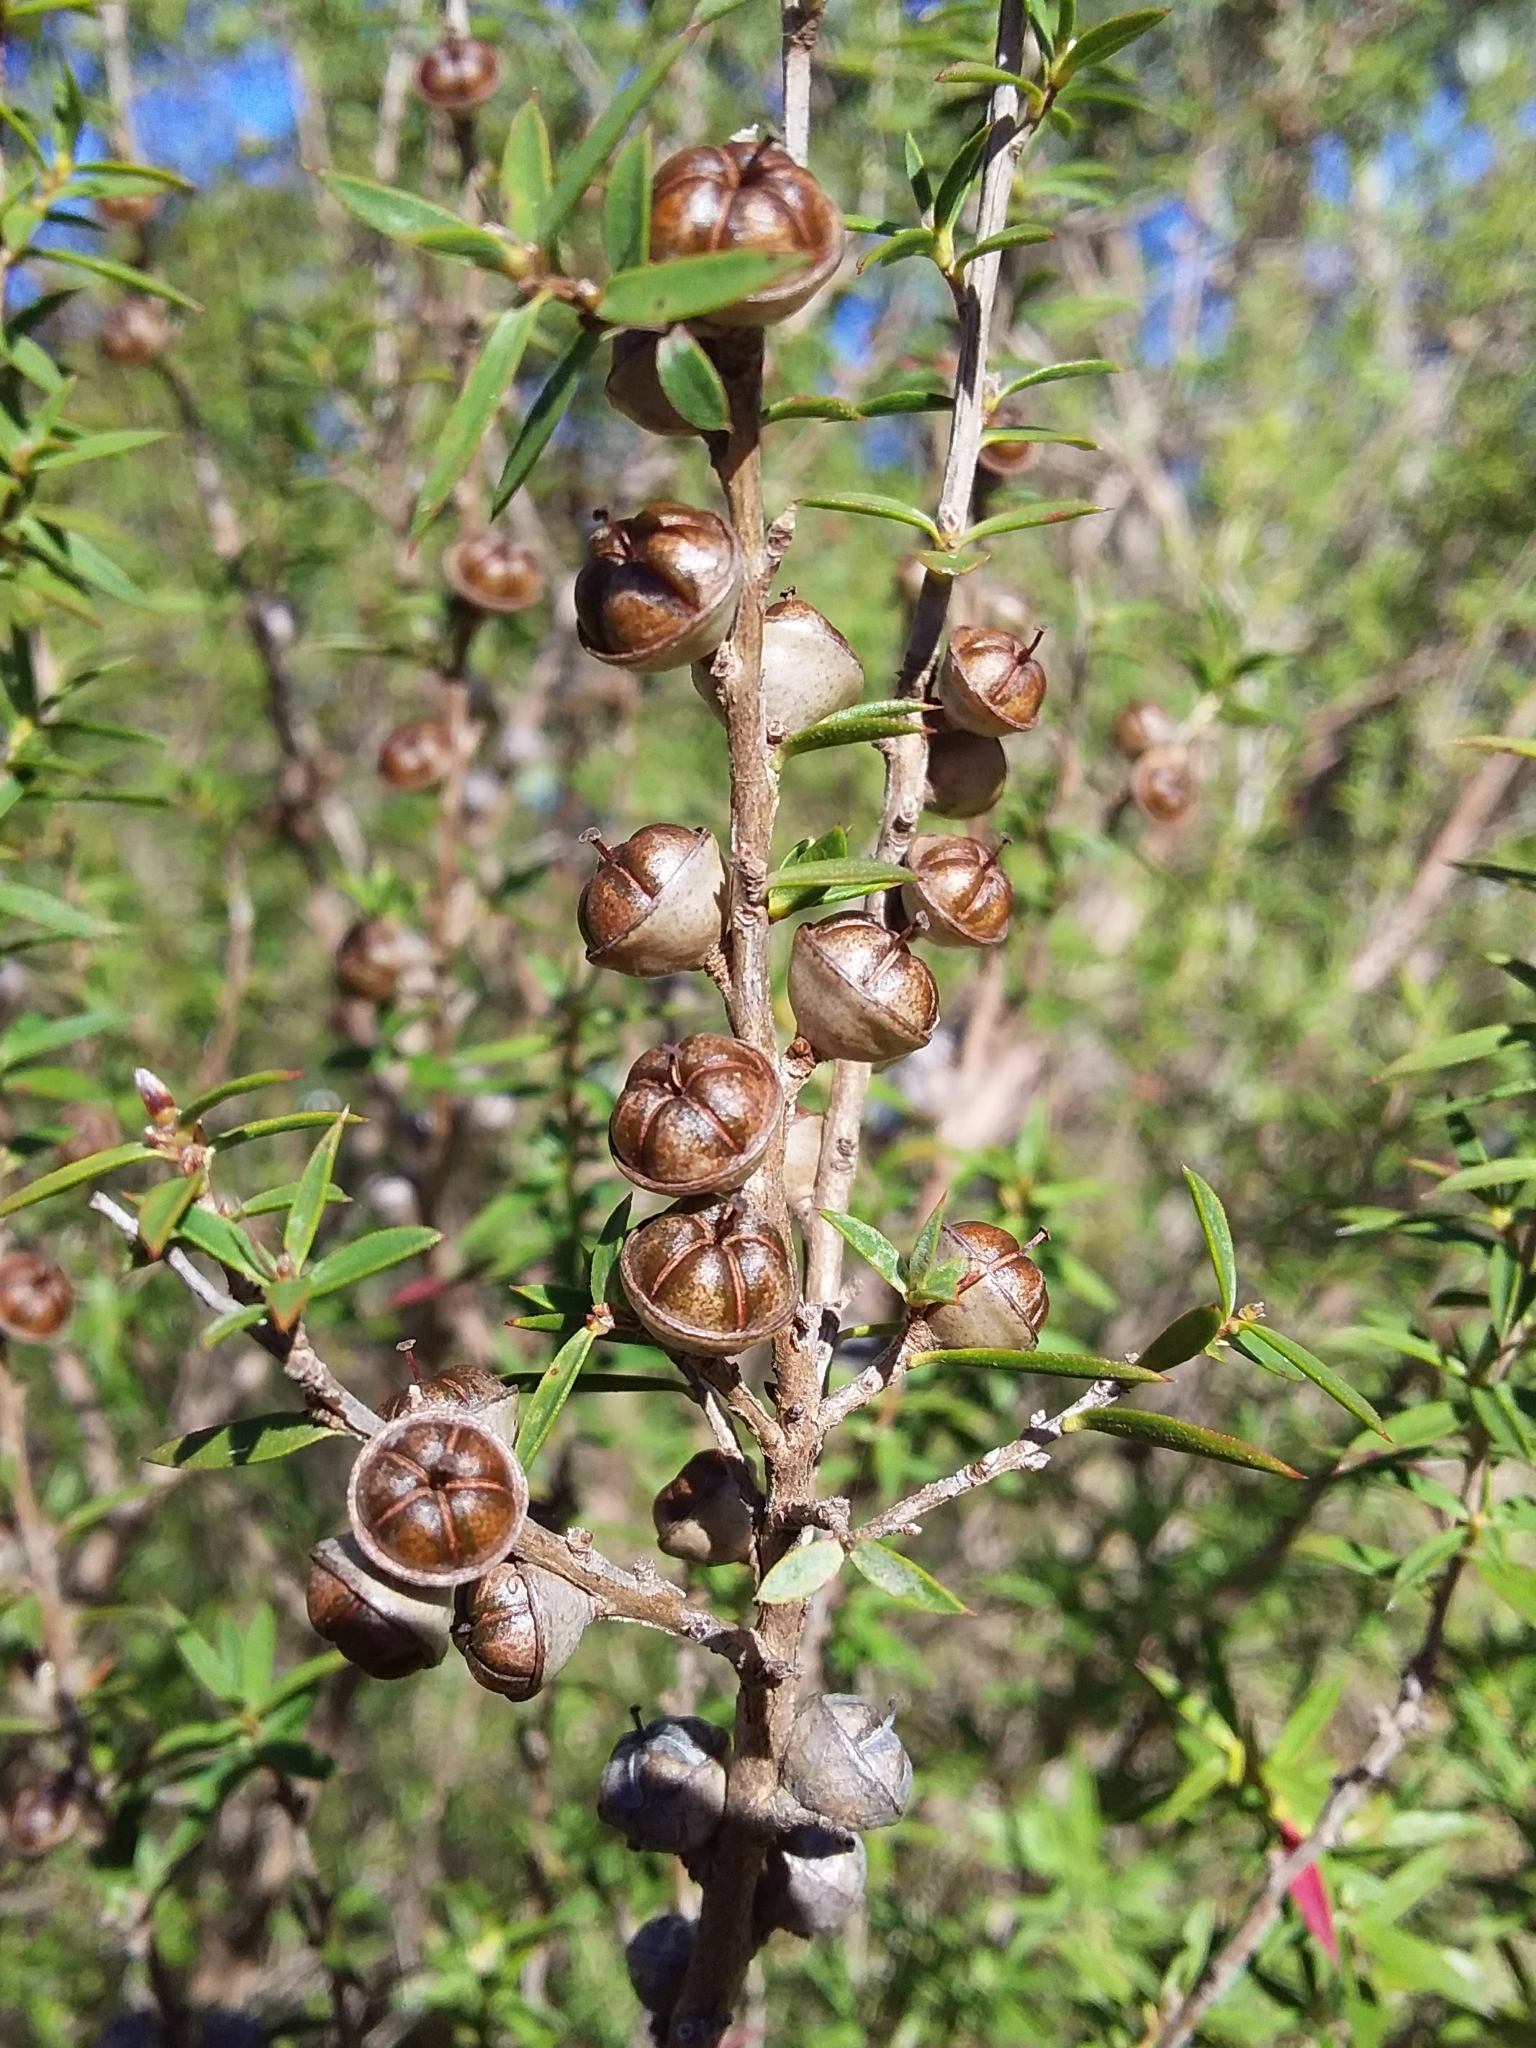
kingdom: Plantae
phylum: Tracheophyta
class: Magnoliopsida
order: Myrtales
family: Myrtaceae
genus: Leptospermum
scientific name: Leptospermum continentale
